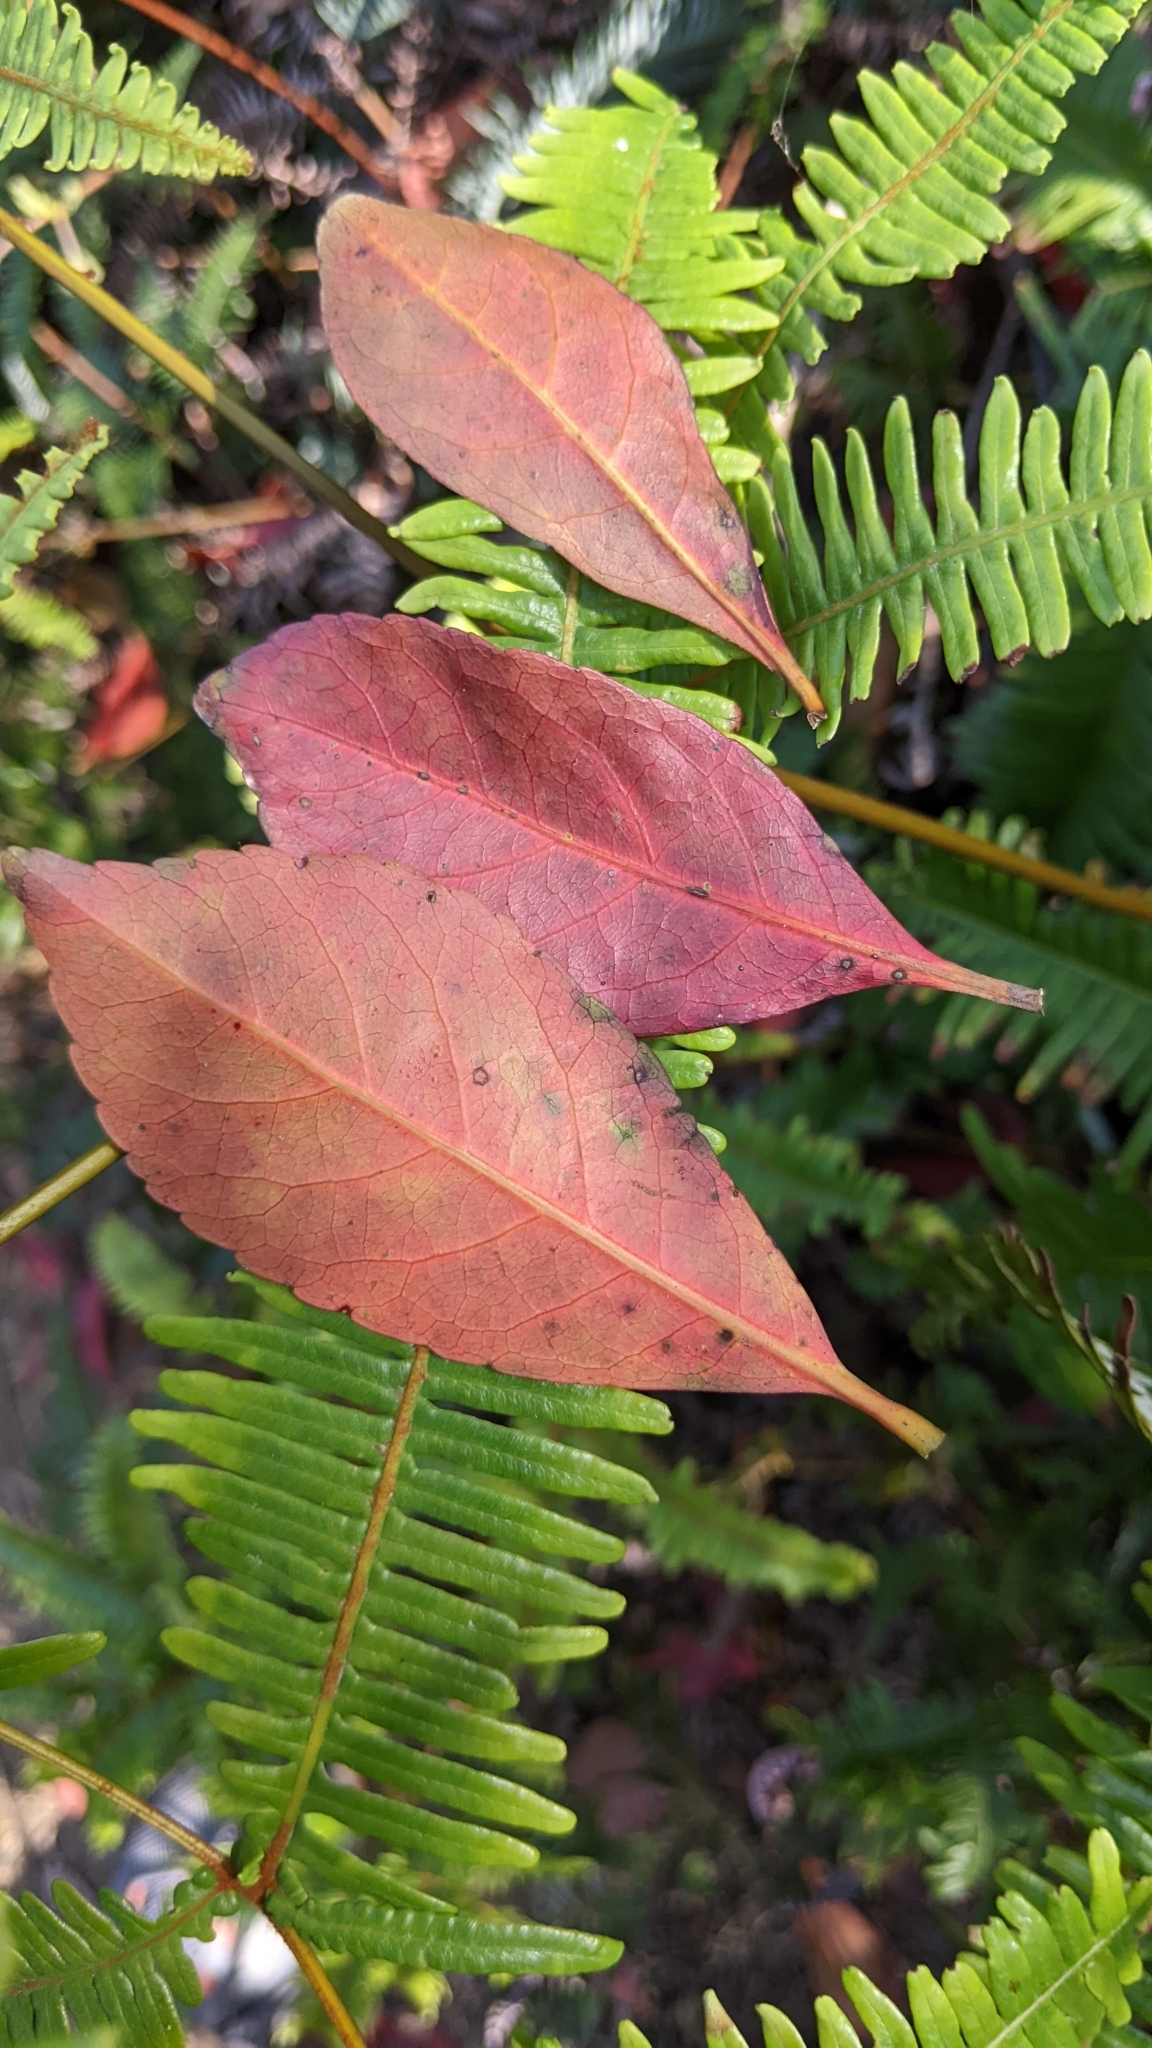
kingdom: Plantae
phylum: Tracheophyta
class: Magnoliopsida
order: Oxalidales
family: Elaeocarpaceae
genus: Elaeocarpus
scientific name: Elaeocarpus decipiens
